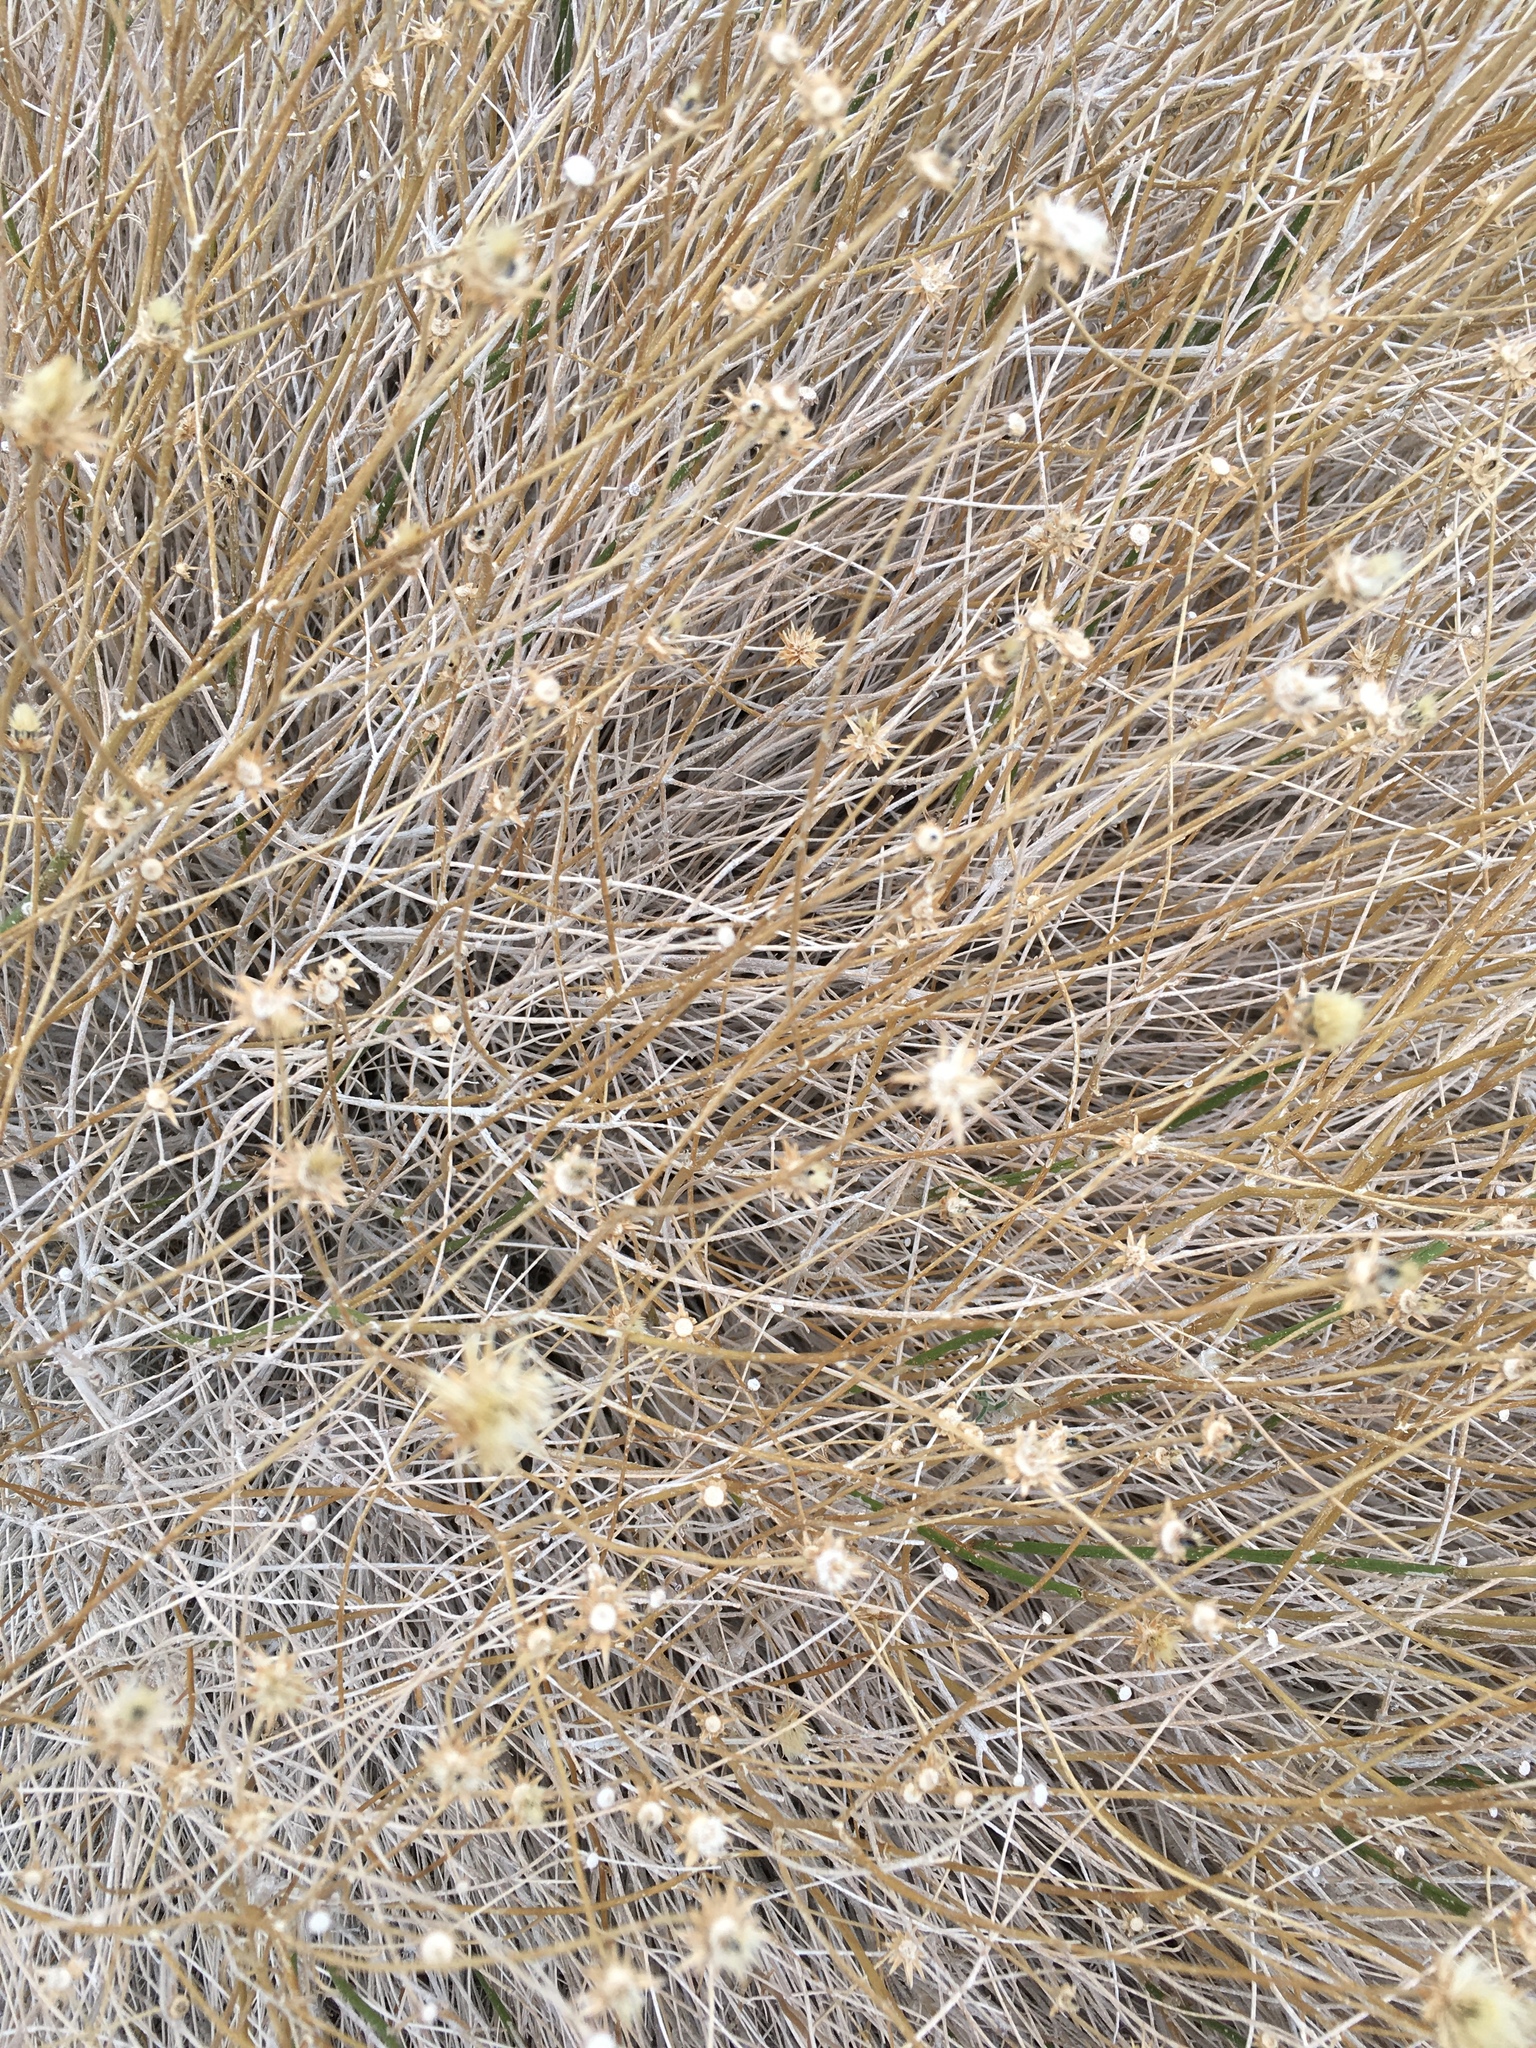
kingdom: Plantae
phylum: Tracheophyta
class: Magnoliopsida
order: Asterales
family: Asteraceae
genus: Bebbia
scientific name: Bebbia juncea
